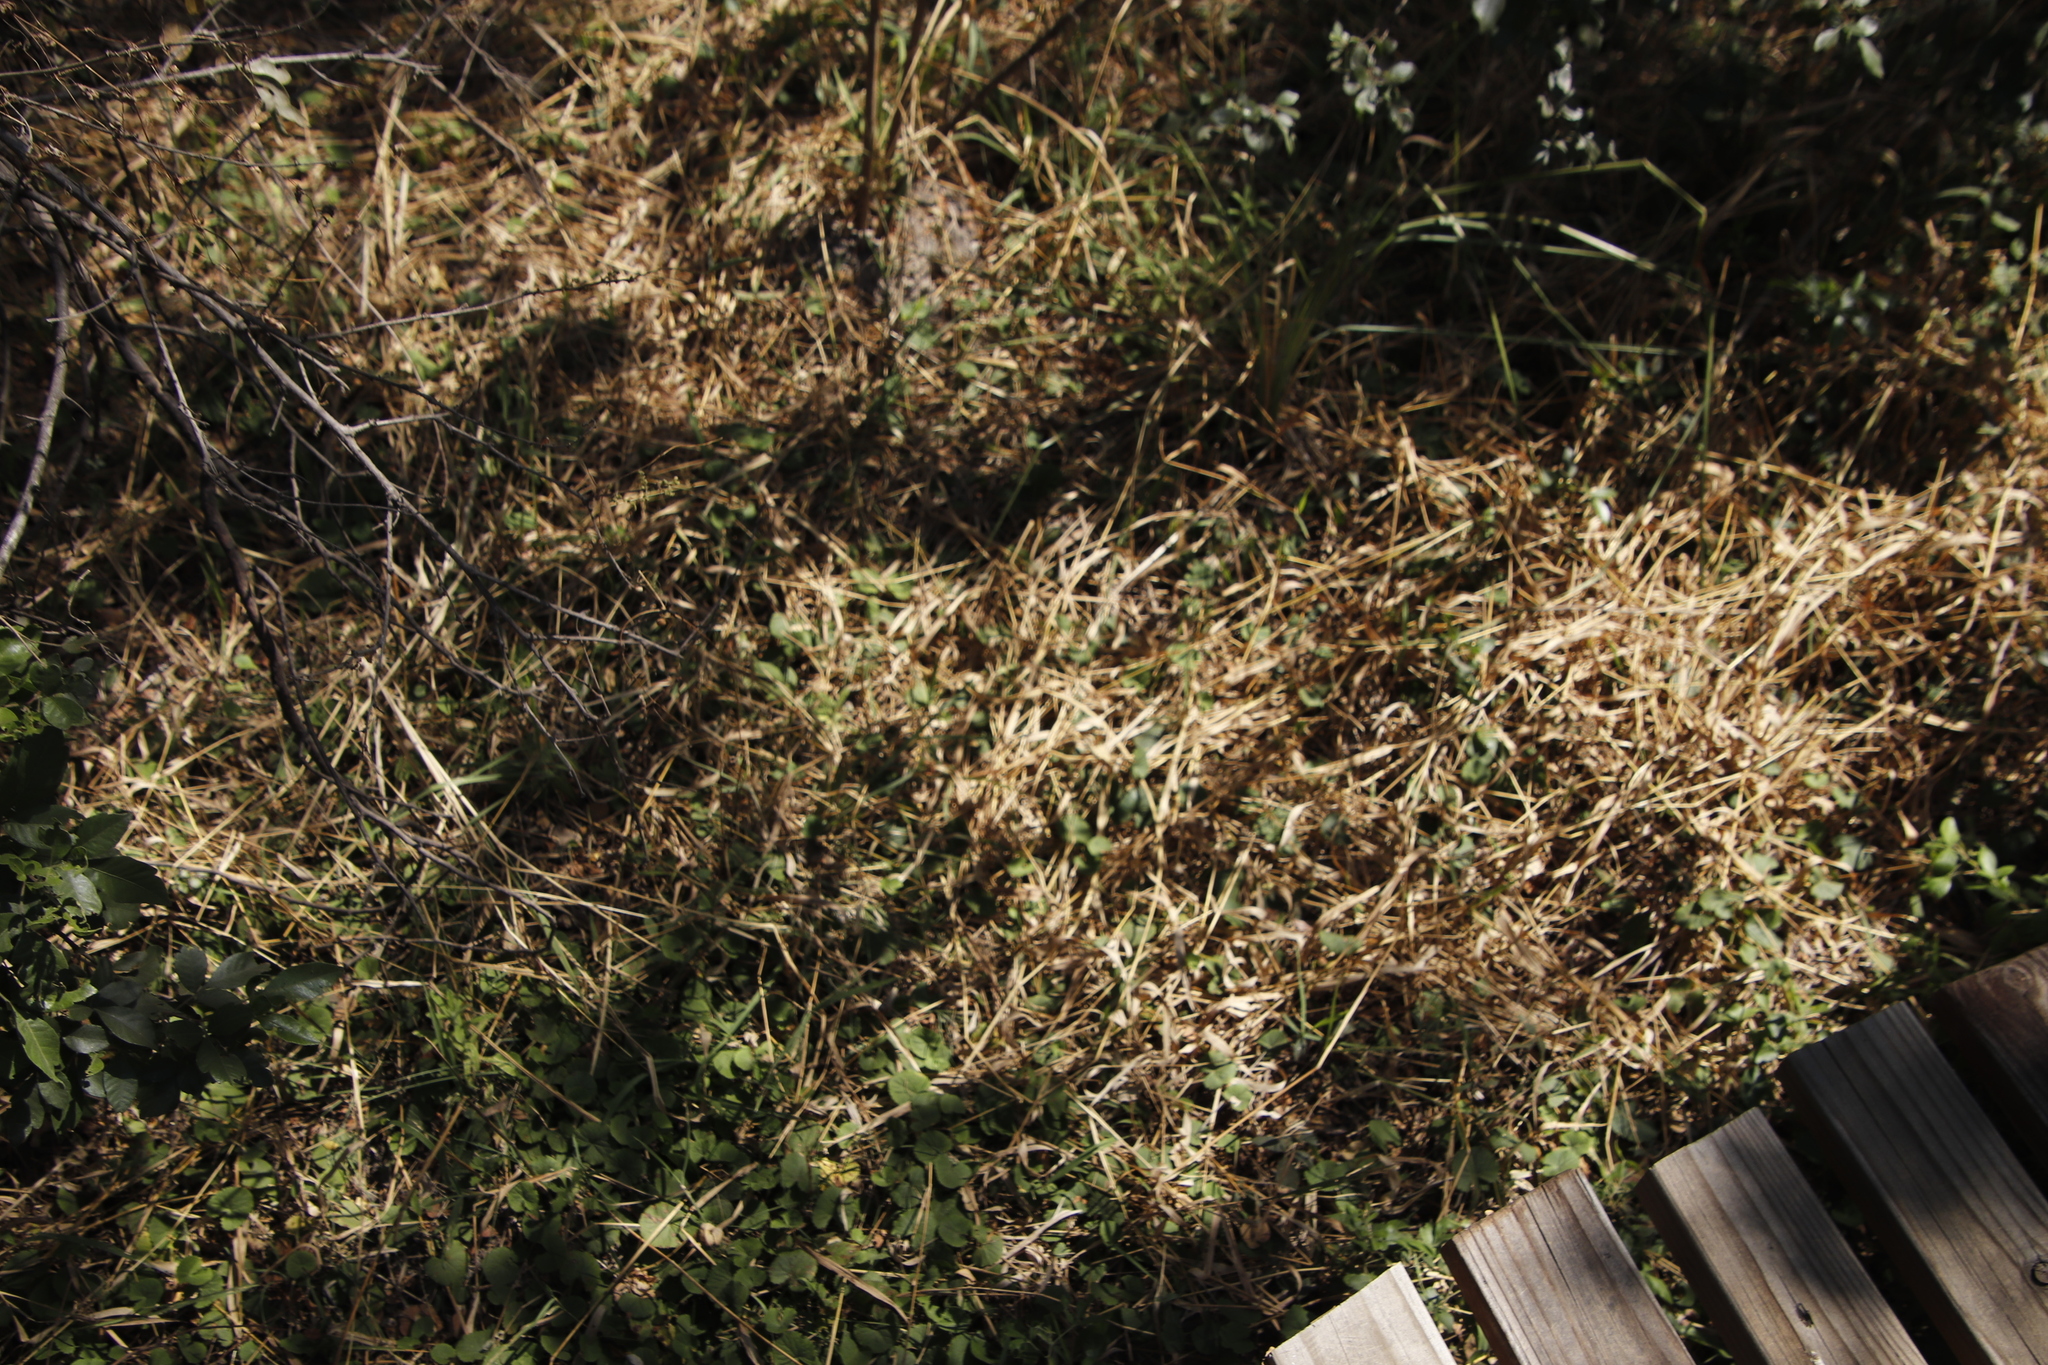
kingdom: Plantae
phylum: Tracheophyta
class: Magnoliopsida
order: Apiales
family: Apiaceae
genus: Centella
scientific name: Centella asiatica
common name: Spadeleaf
